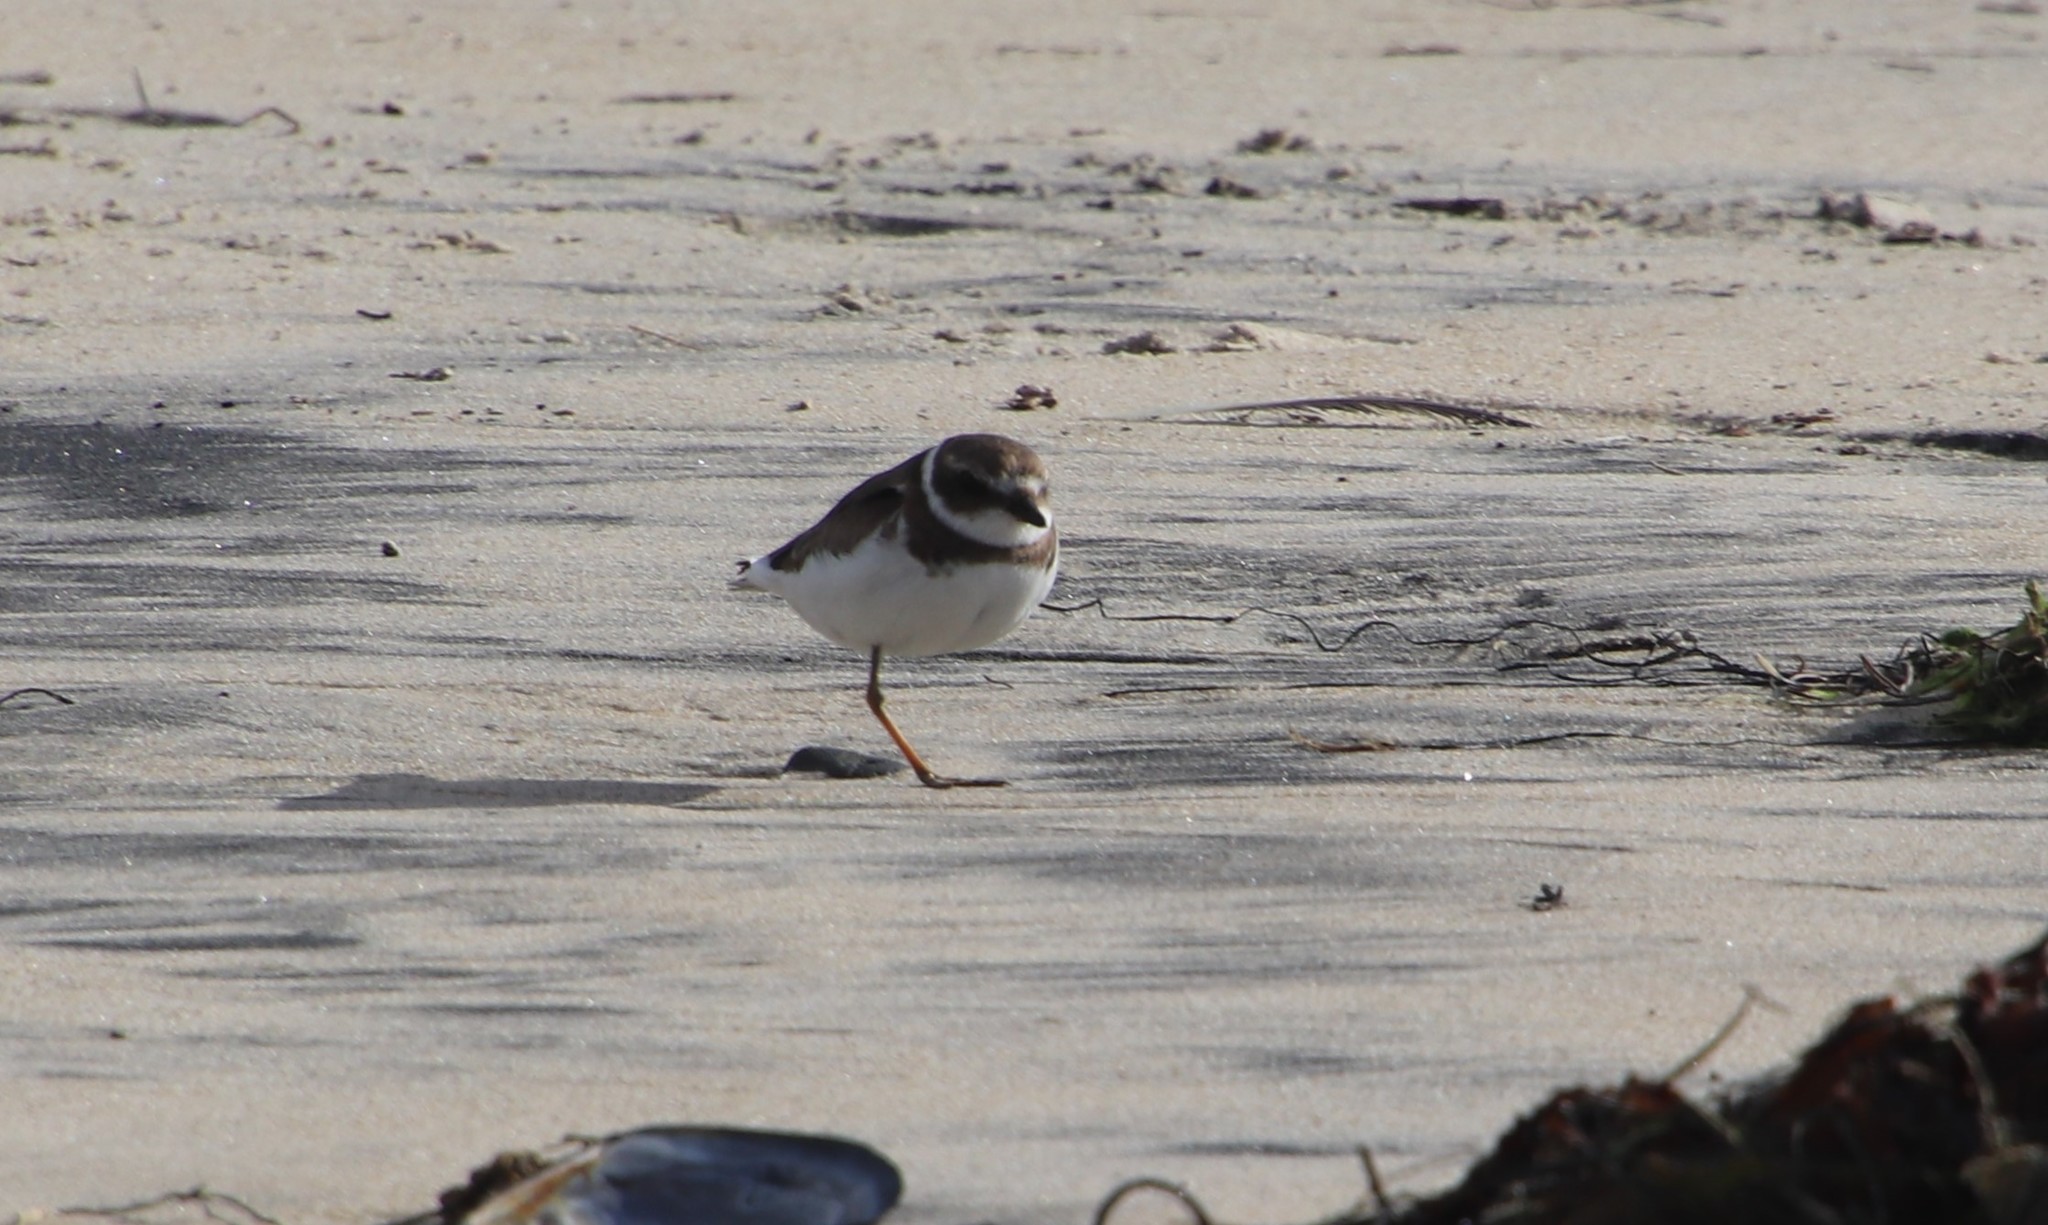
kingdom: Animalia
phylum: Chordata
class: Aves
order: Charadriiformes
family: Charadriidae
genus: Charadrius
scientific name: Charadrius semipalmatus
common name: Semipalmated plover
